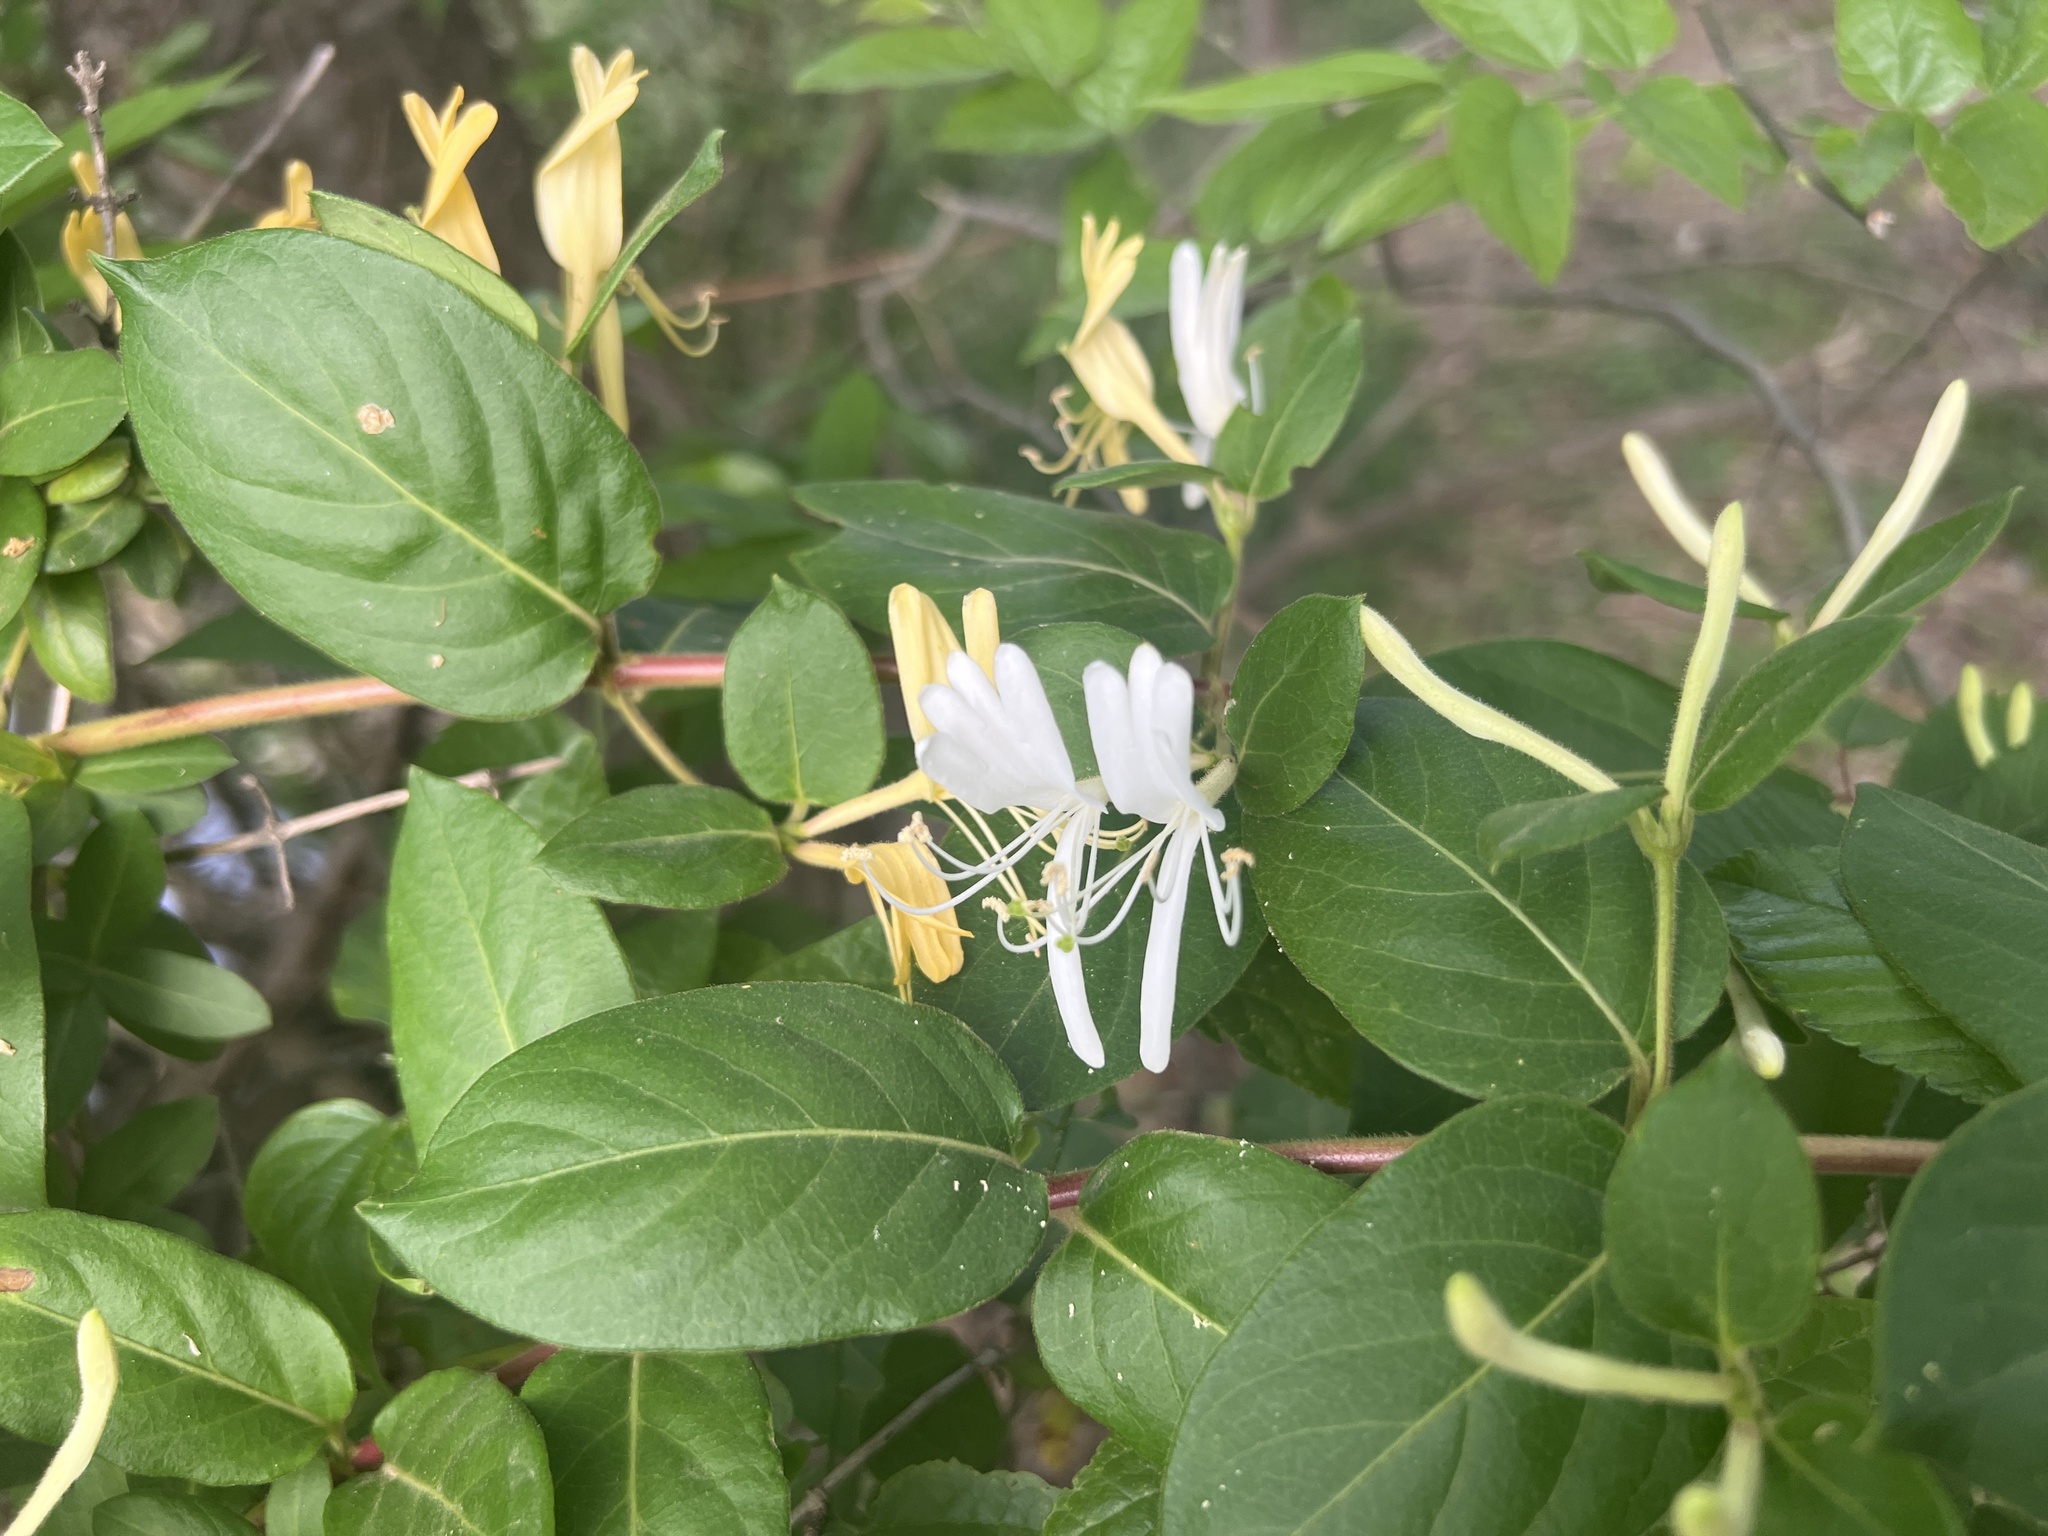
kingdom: Plantae
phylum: Tracheophyta
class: Magnoliopsida
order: Dipsacales
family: Caprifoliaceae
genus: Lonicera
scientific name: Lonicera japonica
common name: Japanese honeysuckle
